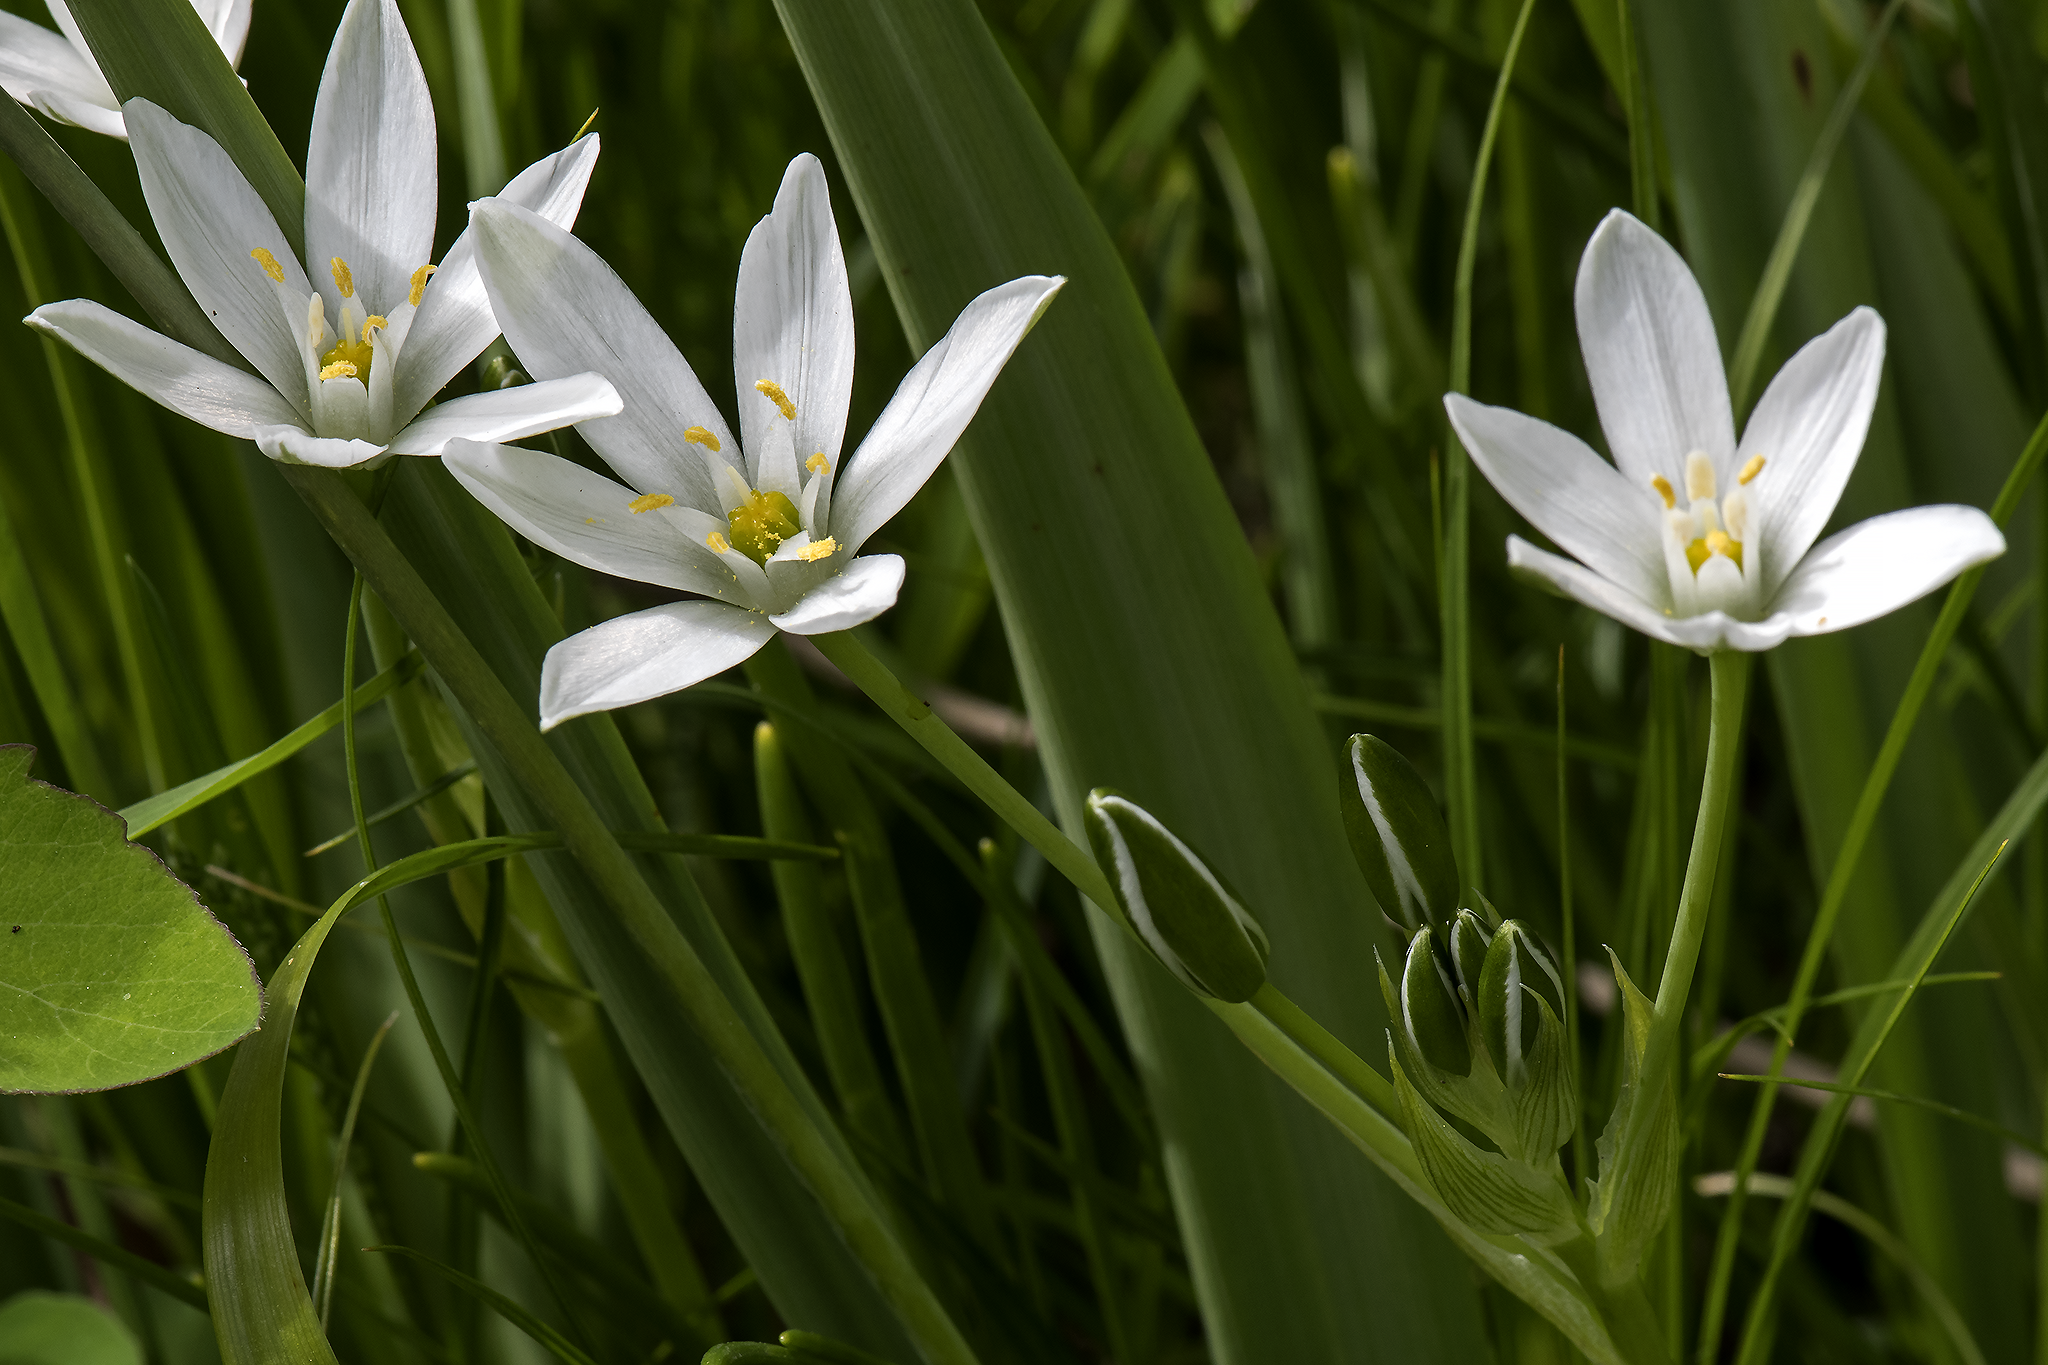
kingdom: Plantae
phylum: Tracheophyta
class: Liliopsida
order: Asparagales
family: Asparagaceae
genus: Ornithogalum
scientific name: Ornithogalum umbellatum
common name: Garden star-of-bethlehem
